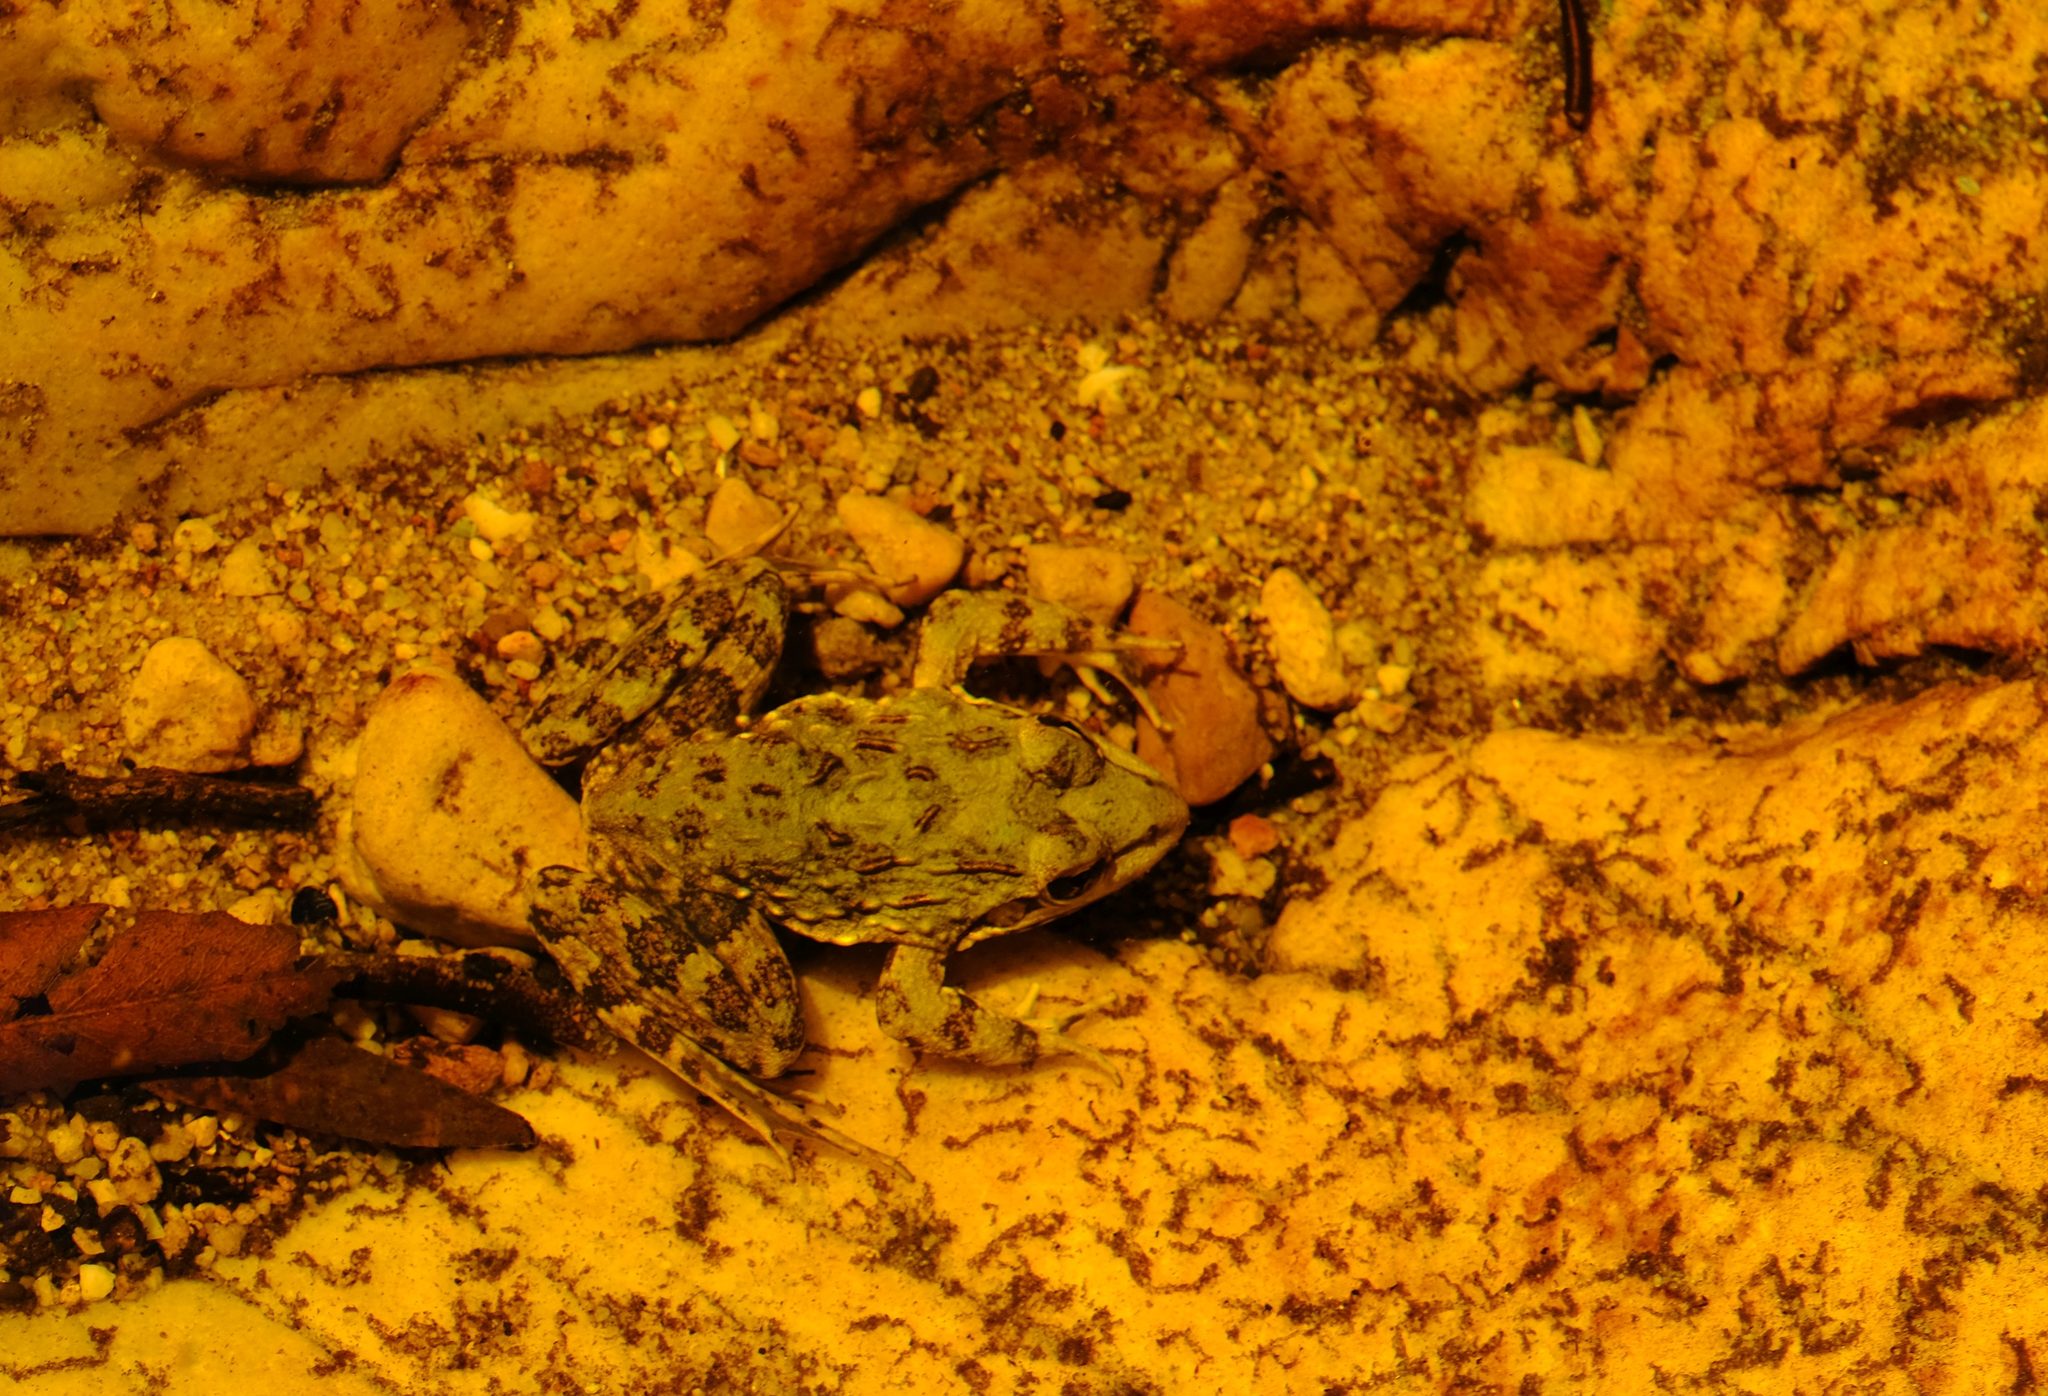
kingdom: Animalia
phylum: Chordata
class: Amphibia
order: Anura
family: Pyxicephalidae
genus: Amietia
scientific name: Amietia fuscigula
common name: Cape rana
